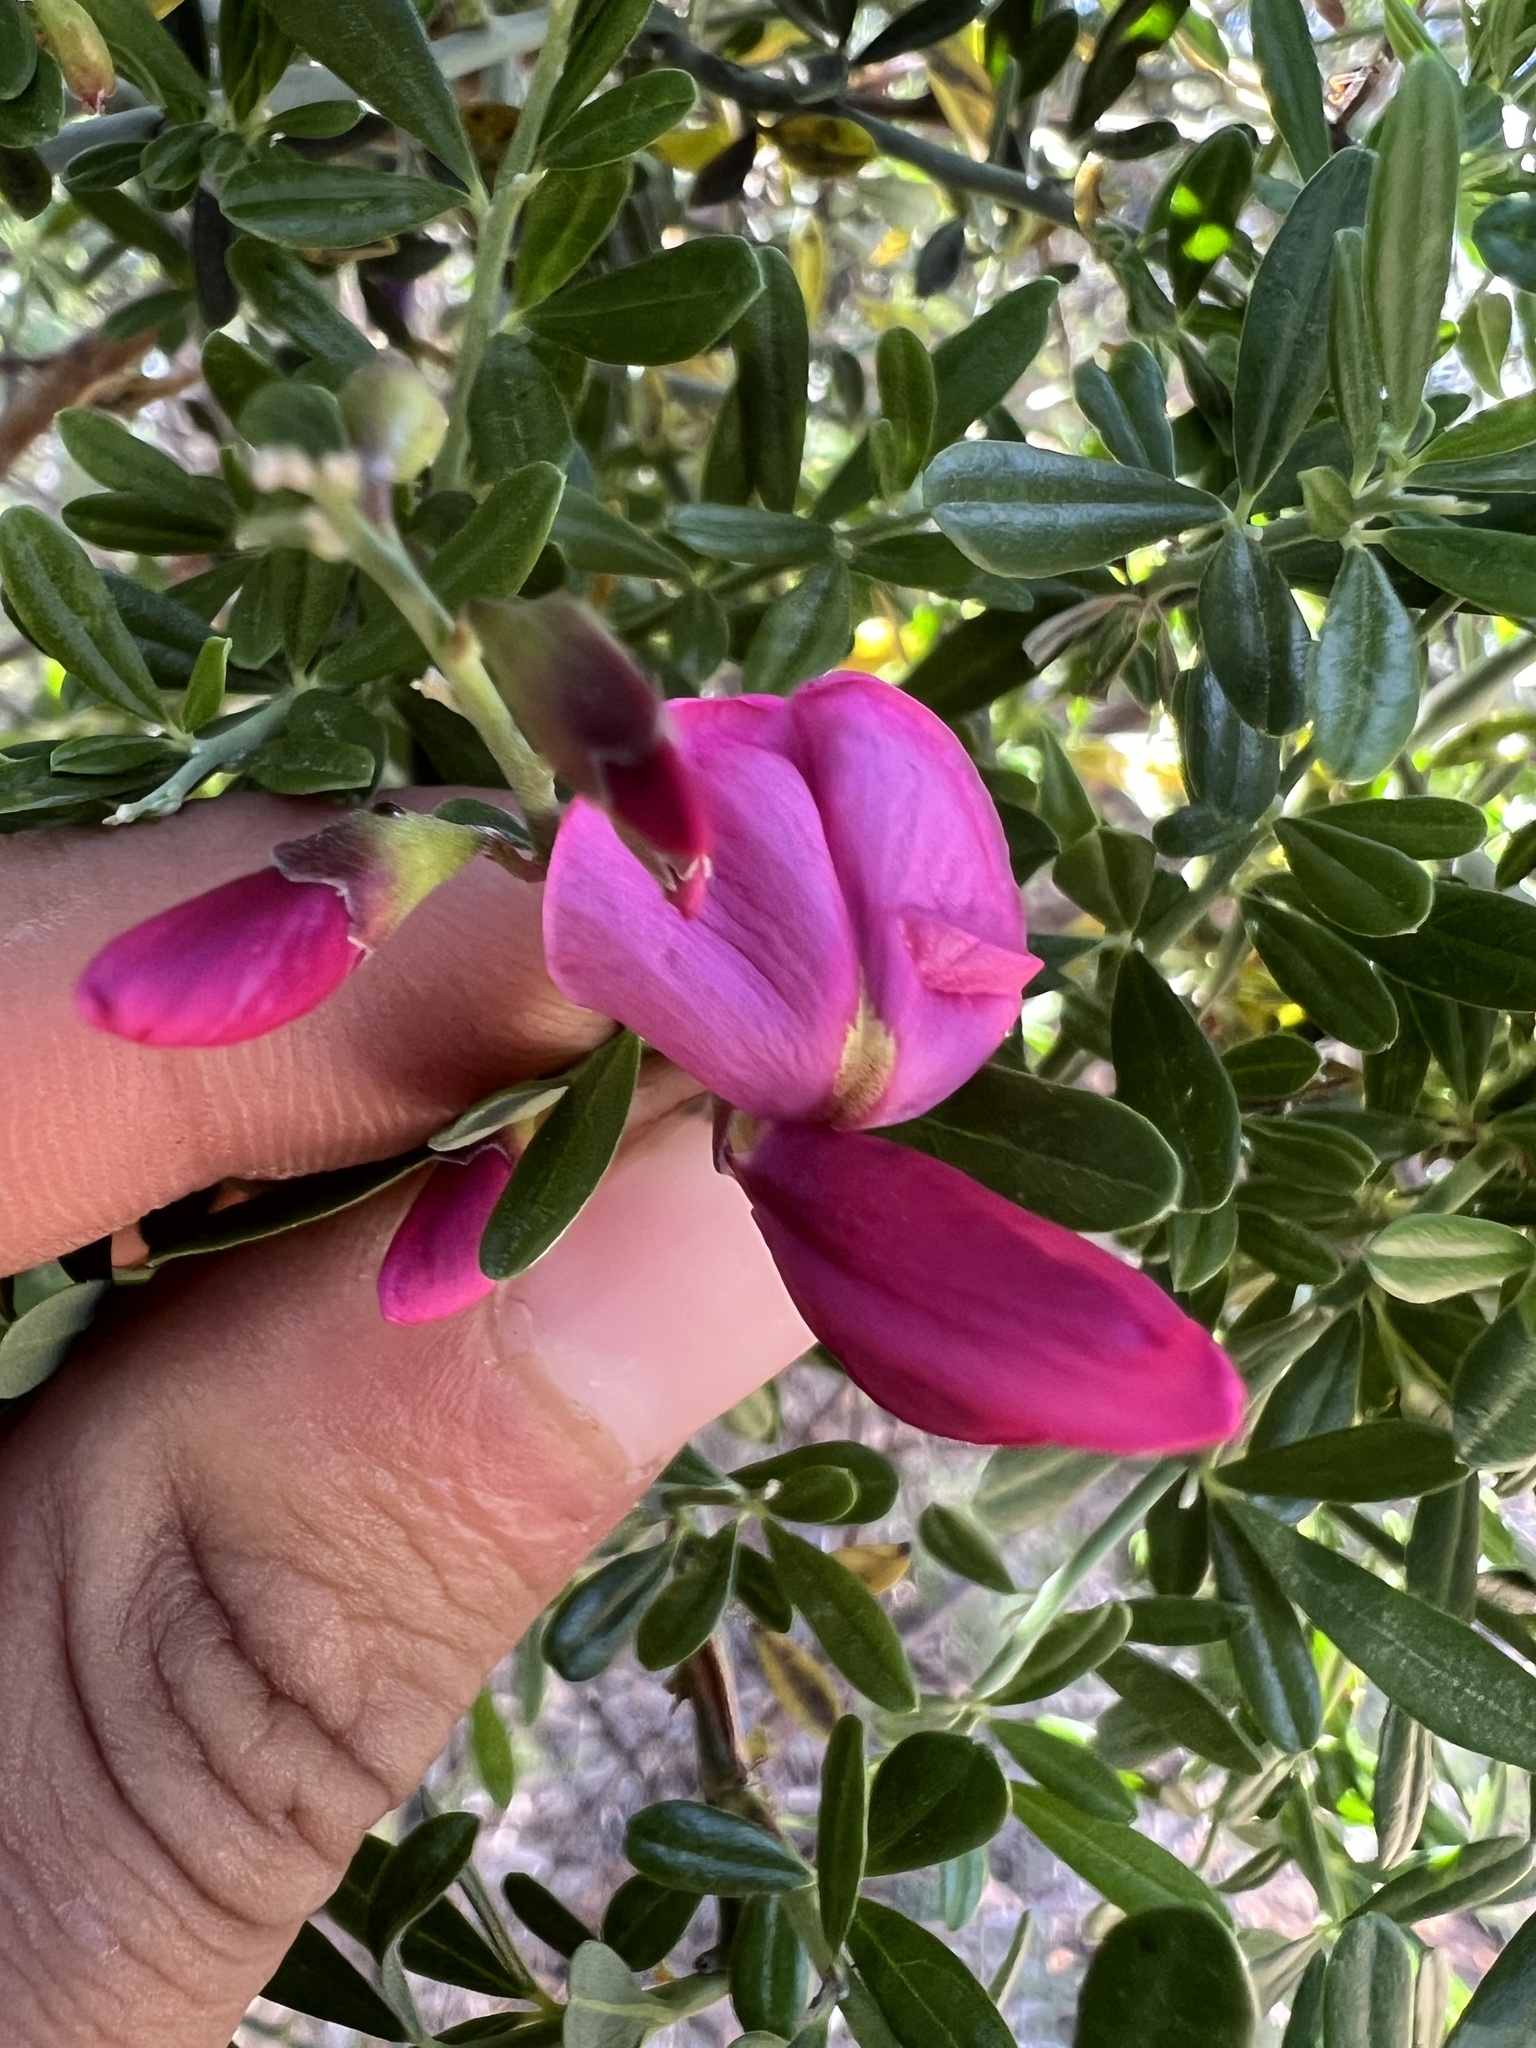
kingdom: Plantae
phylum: Tracheophyta
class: Magnoliopsida
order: Fabales
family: Fabaceae
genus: Pickeringia
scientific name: Pickeringia montana
